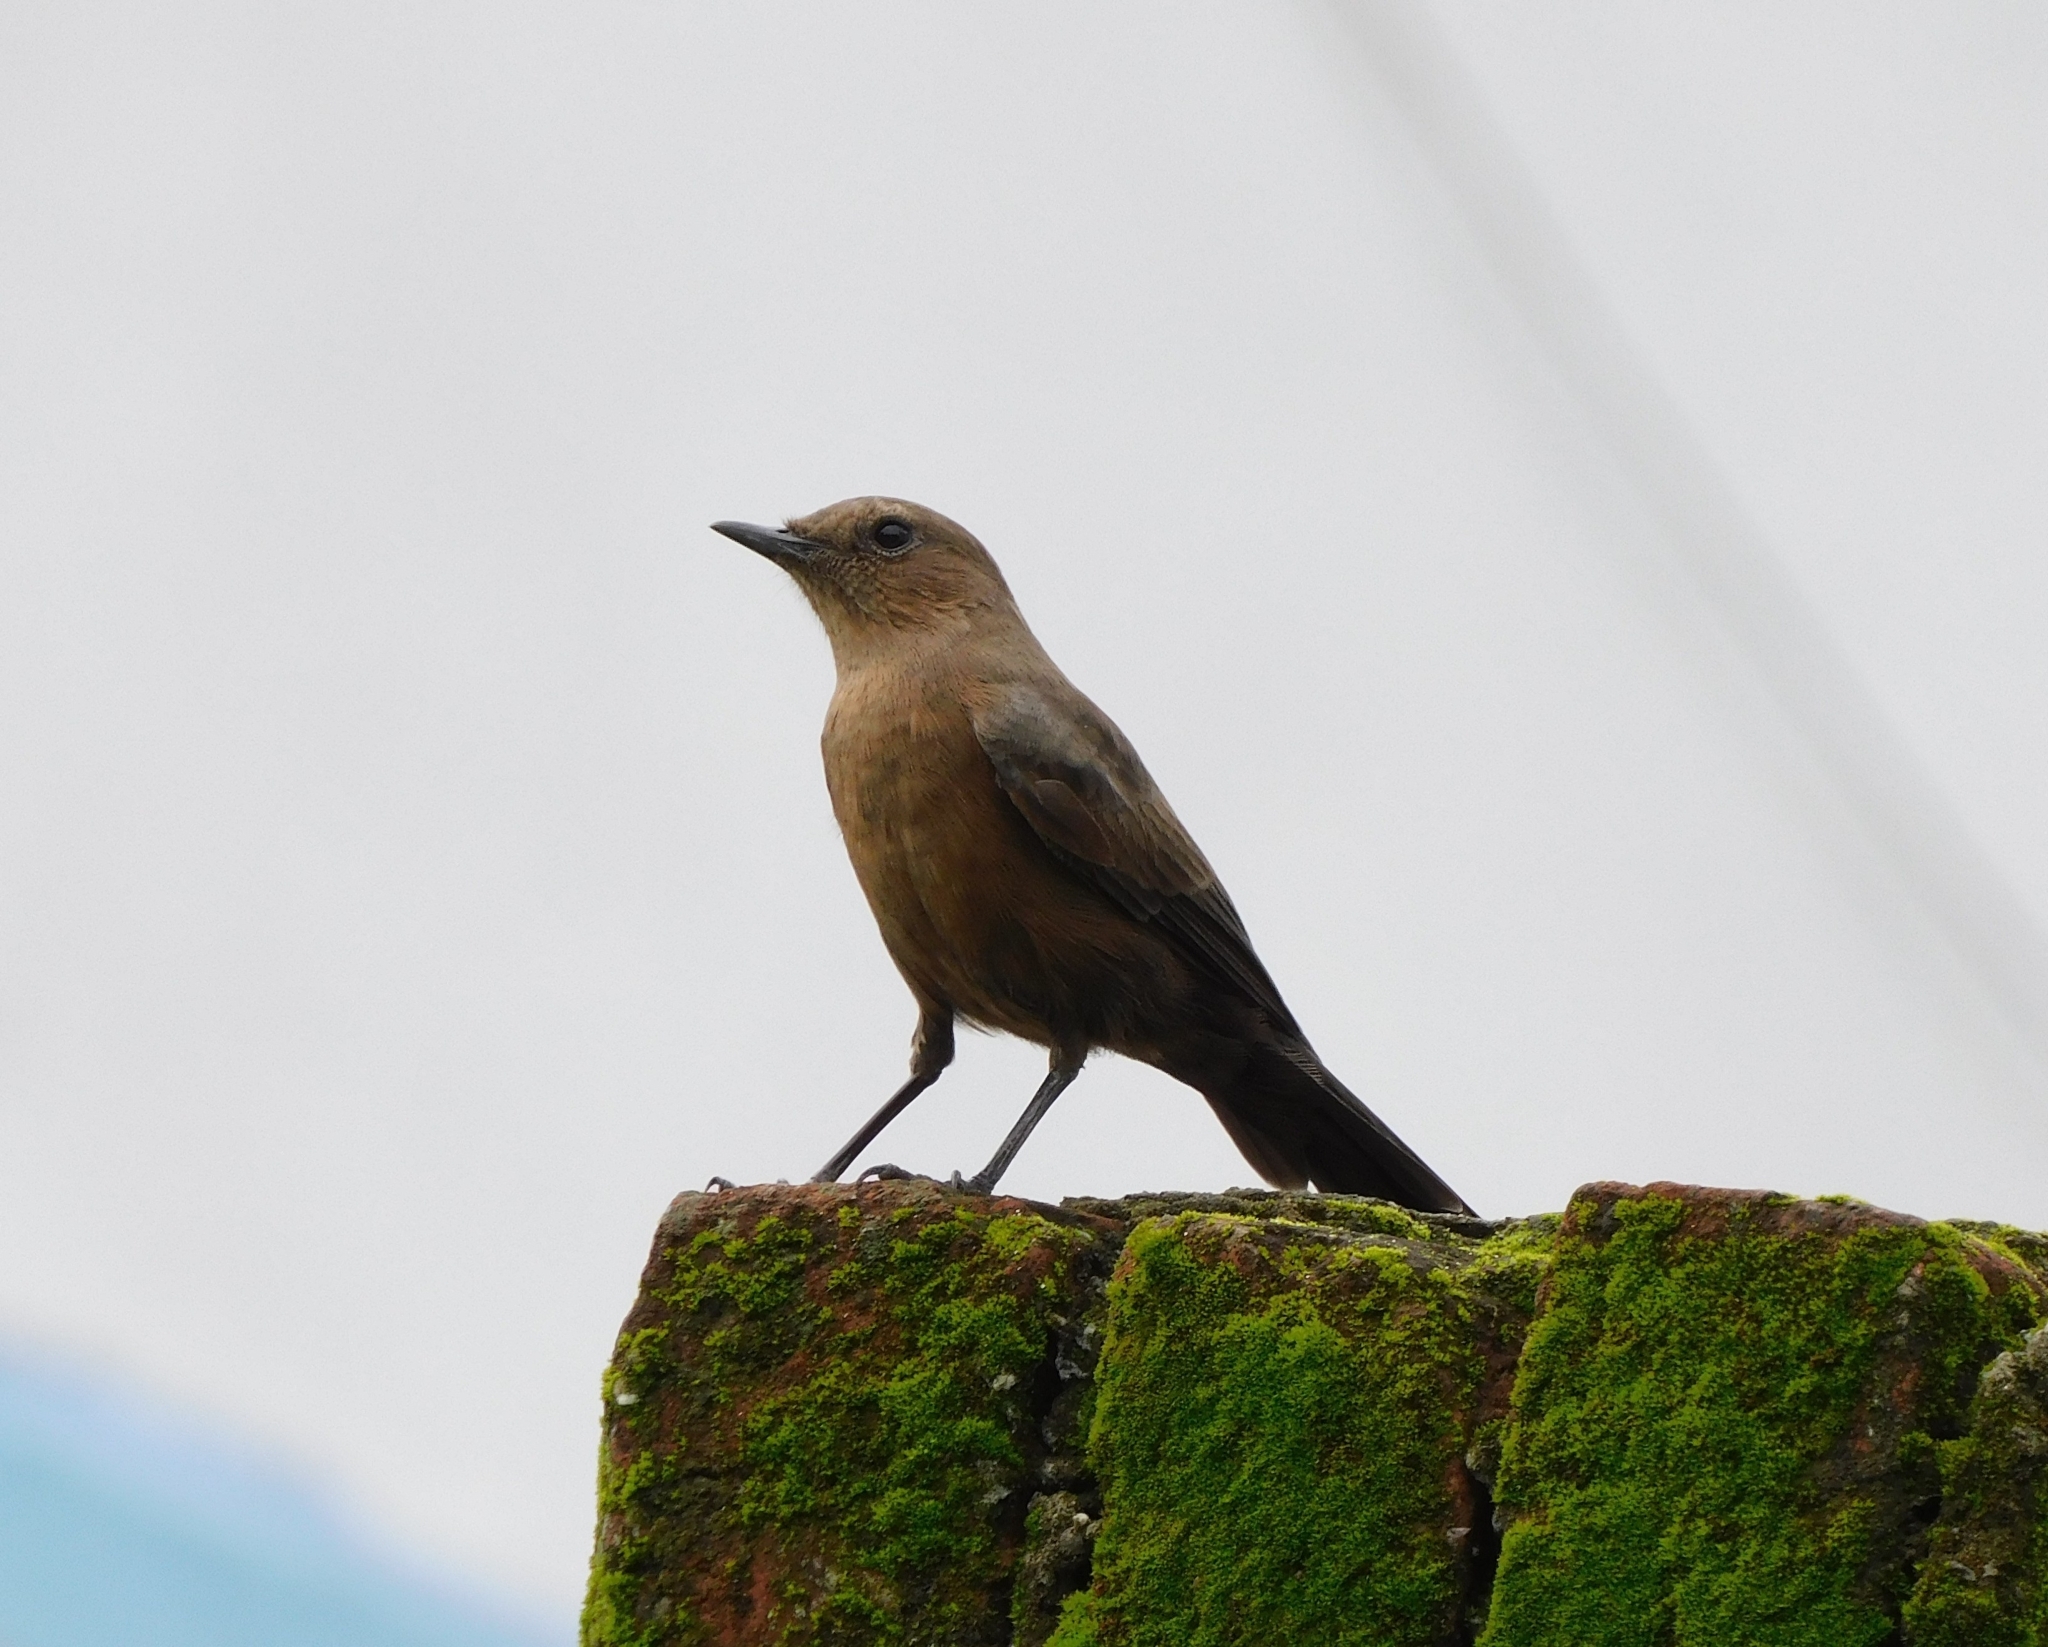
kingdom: Animalia
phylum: Chordata
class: Aves
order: Passeriformes
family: Muscicapidae
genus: Oenanthe
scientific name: Oenanthe fusca
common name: Brown rock chat
